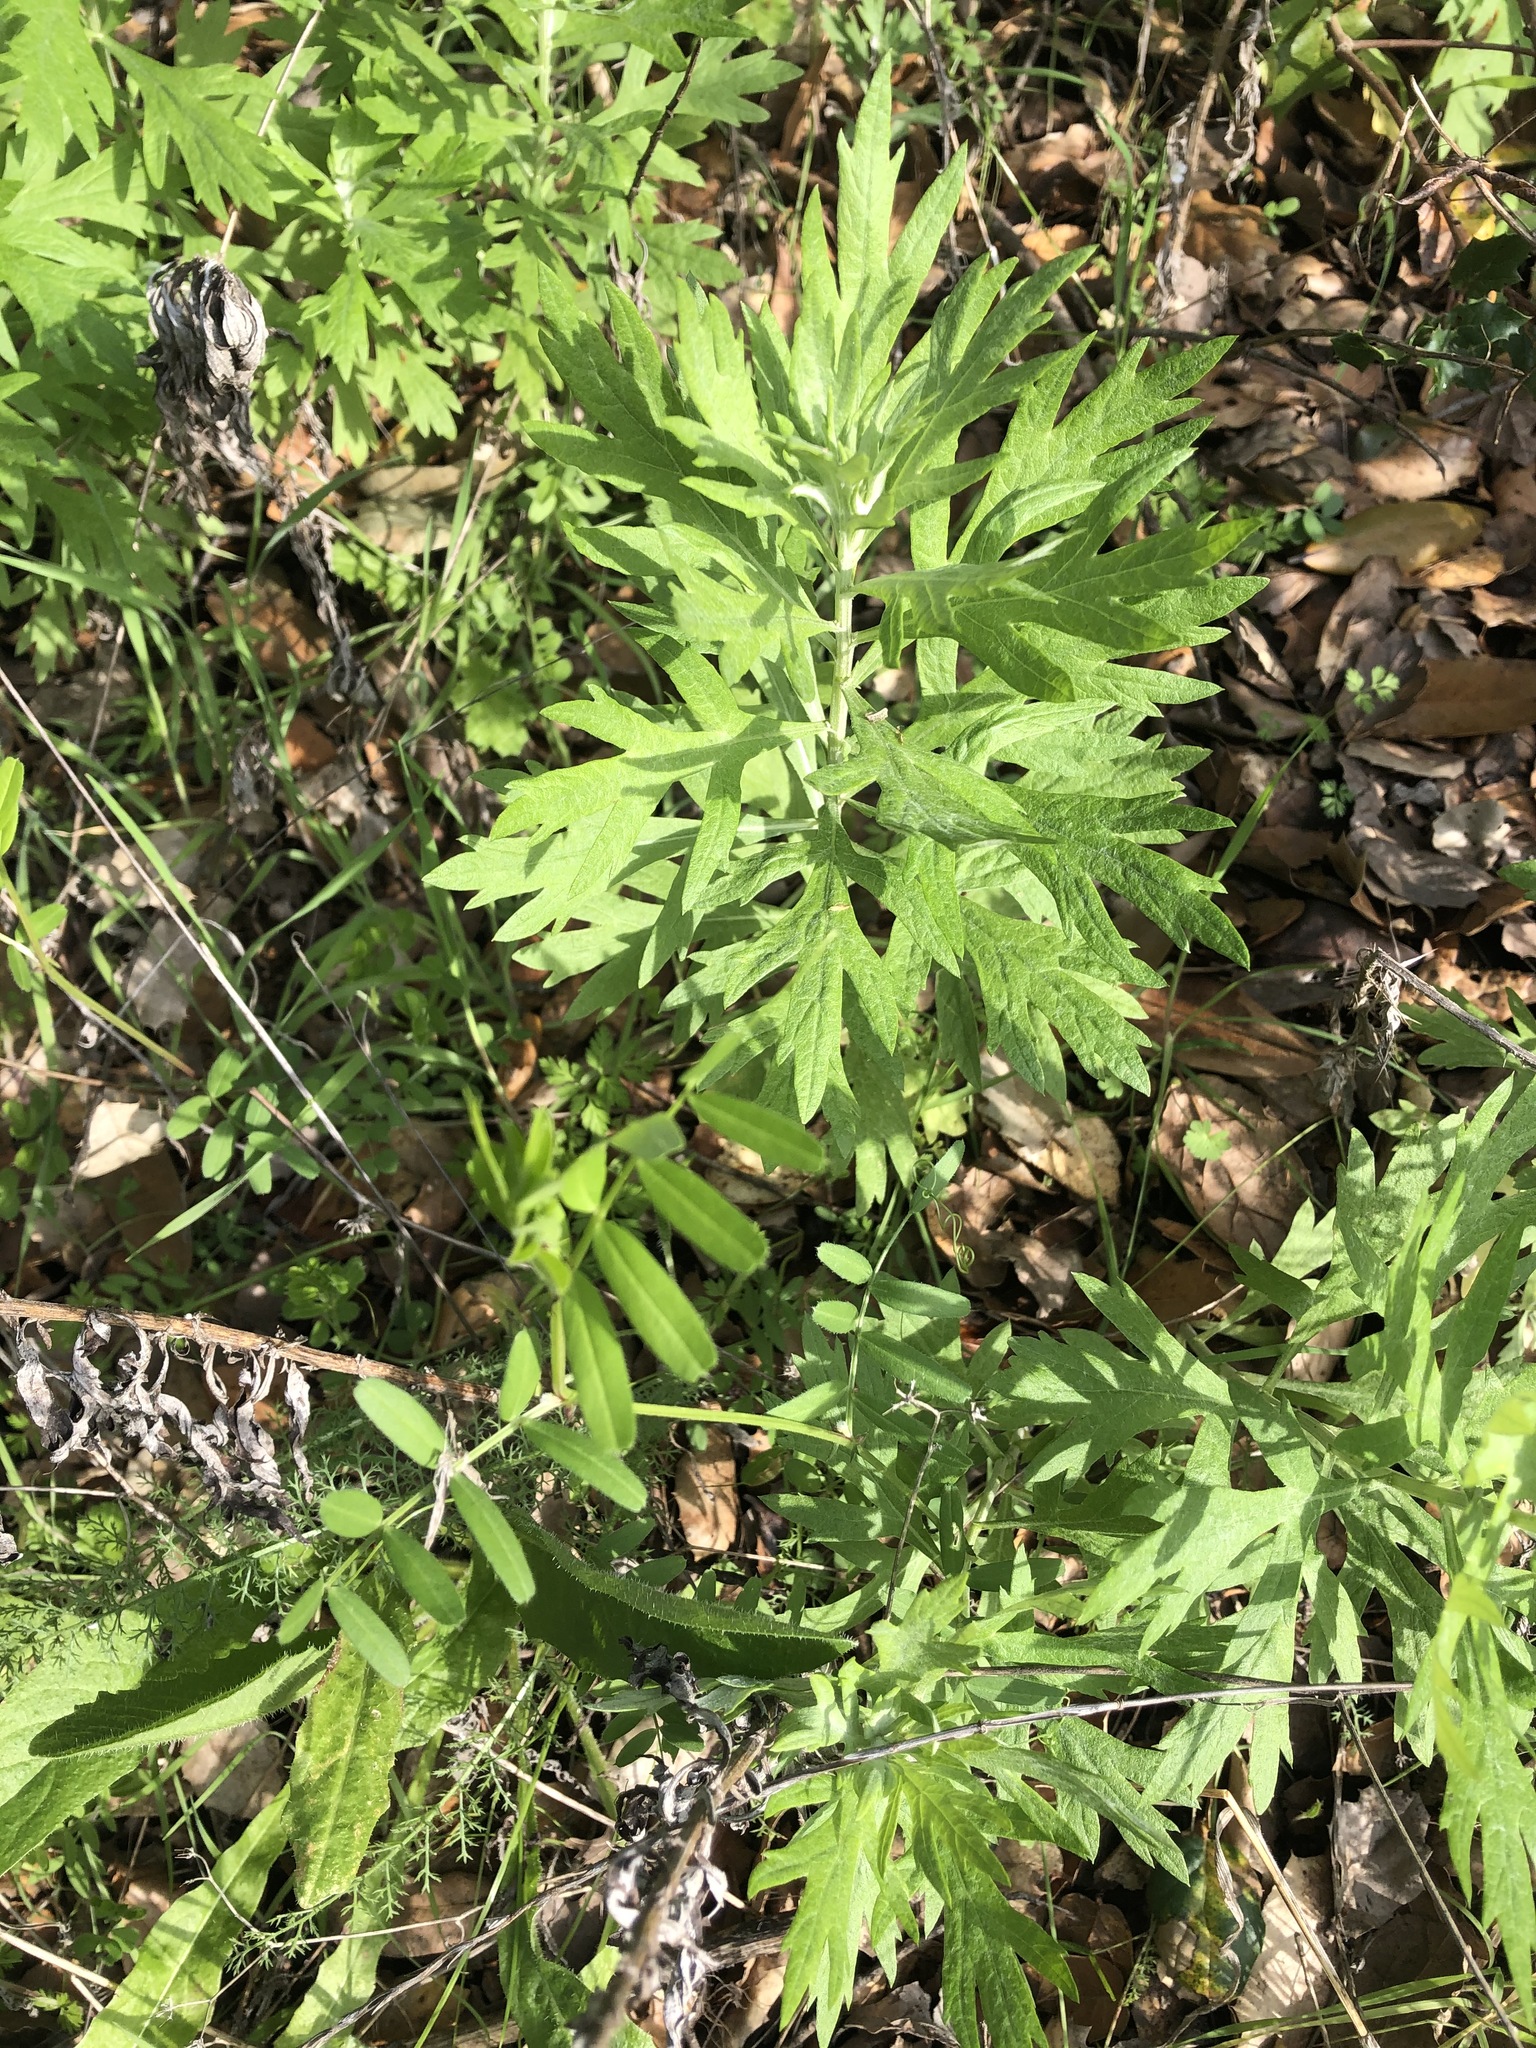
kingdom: Plantae
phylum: Tracheophyta
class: Magnoliopsida
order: Asterales
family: Asteraceae
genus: Artemisia
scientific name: Artemisia douglasiana
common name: Northwest mugwort
